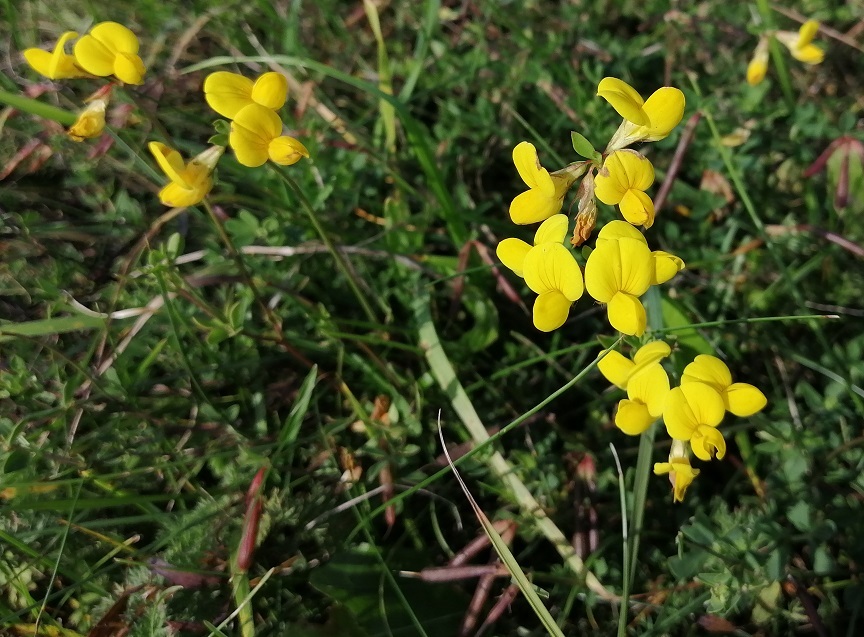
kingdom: Plantae
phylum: Tracheophyta
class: Magnoliopsida
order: Fabales
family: Fabaceae
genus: Lotus
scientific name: Lotus corniculatus
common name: Common bird's-foot-trefoil
